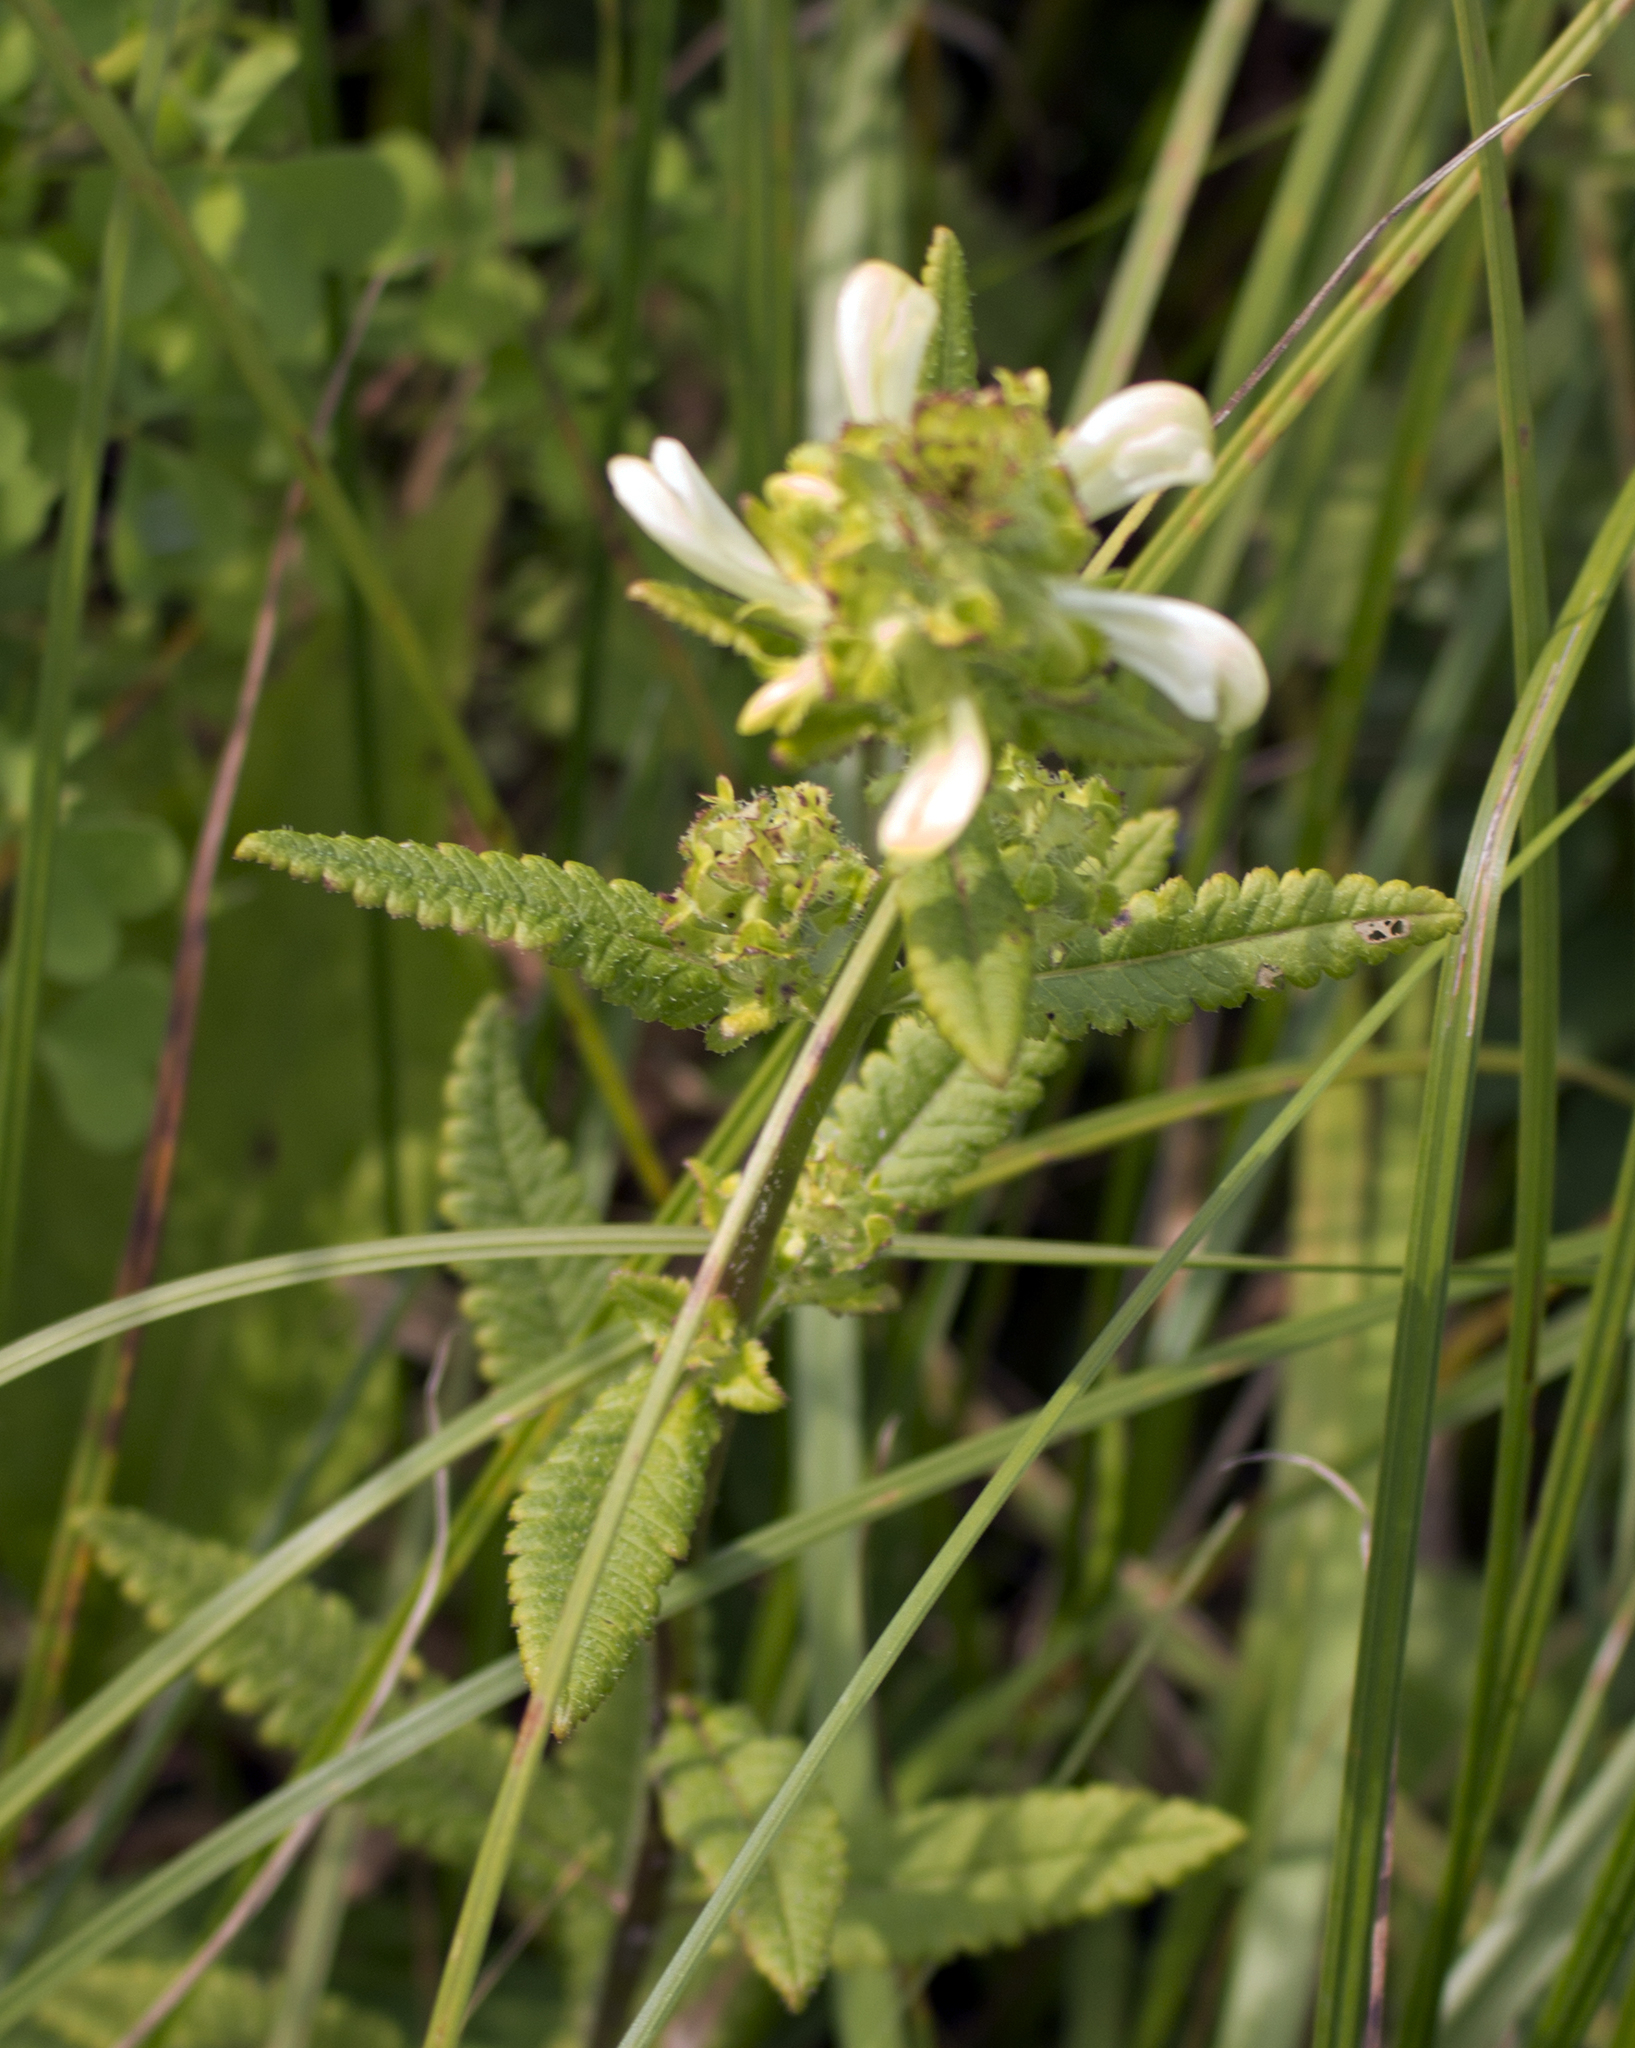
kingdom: Plantae
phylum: Tracheophyta
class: Magnoliopsida
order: Lamiales
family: Orobanchaceae
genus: Pedicularis
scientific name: Pedicularis lanceolata
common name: Swamp lousewort
